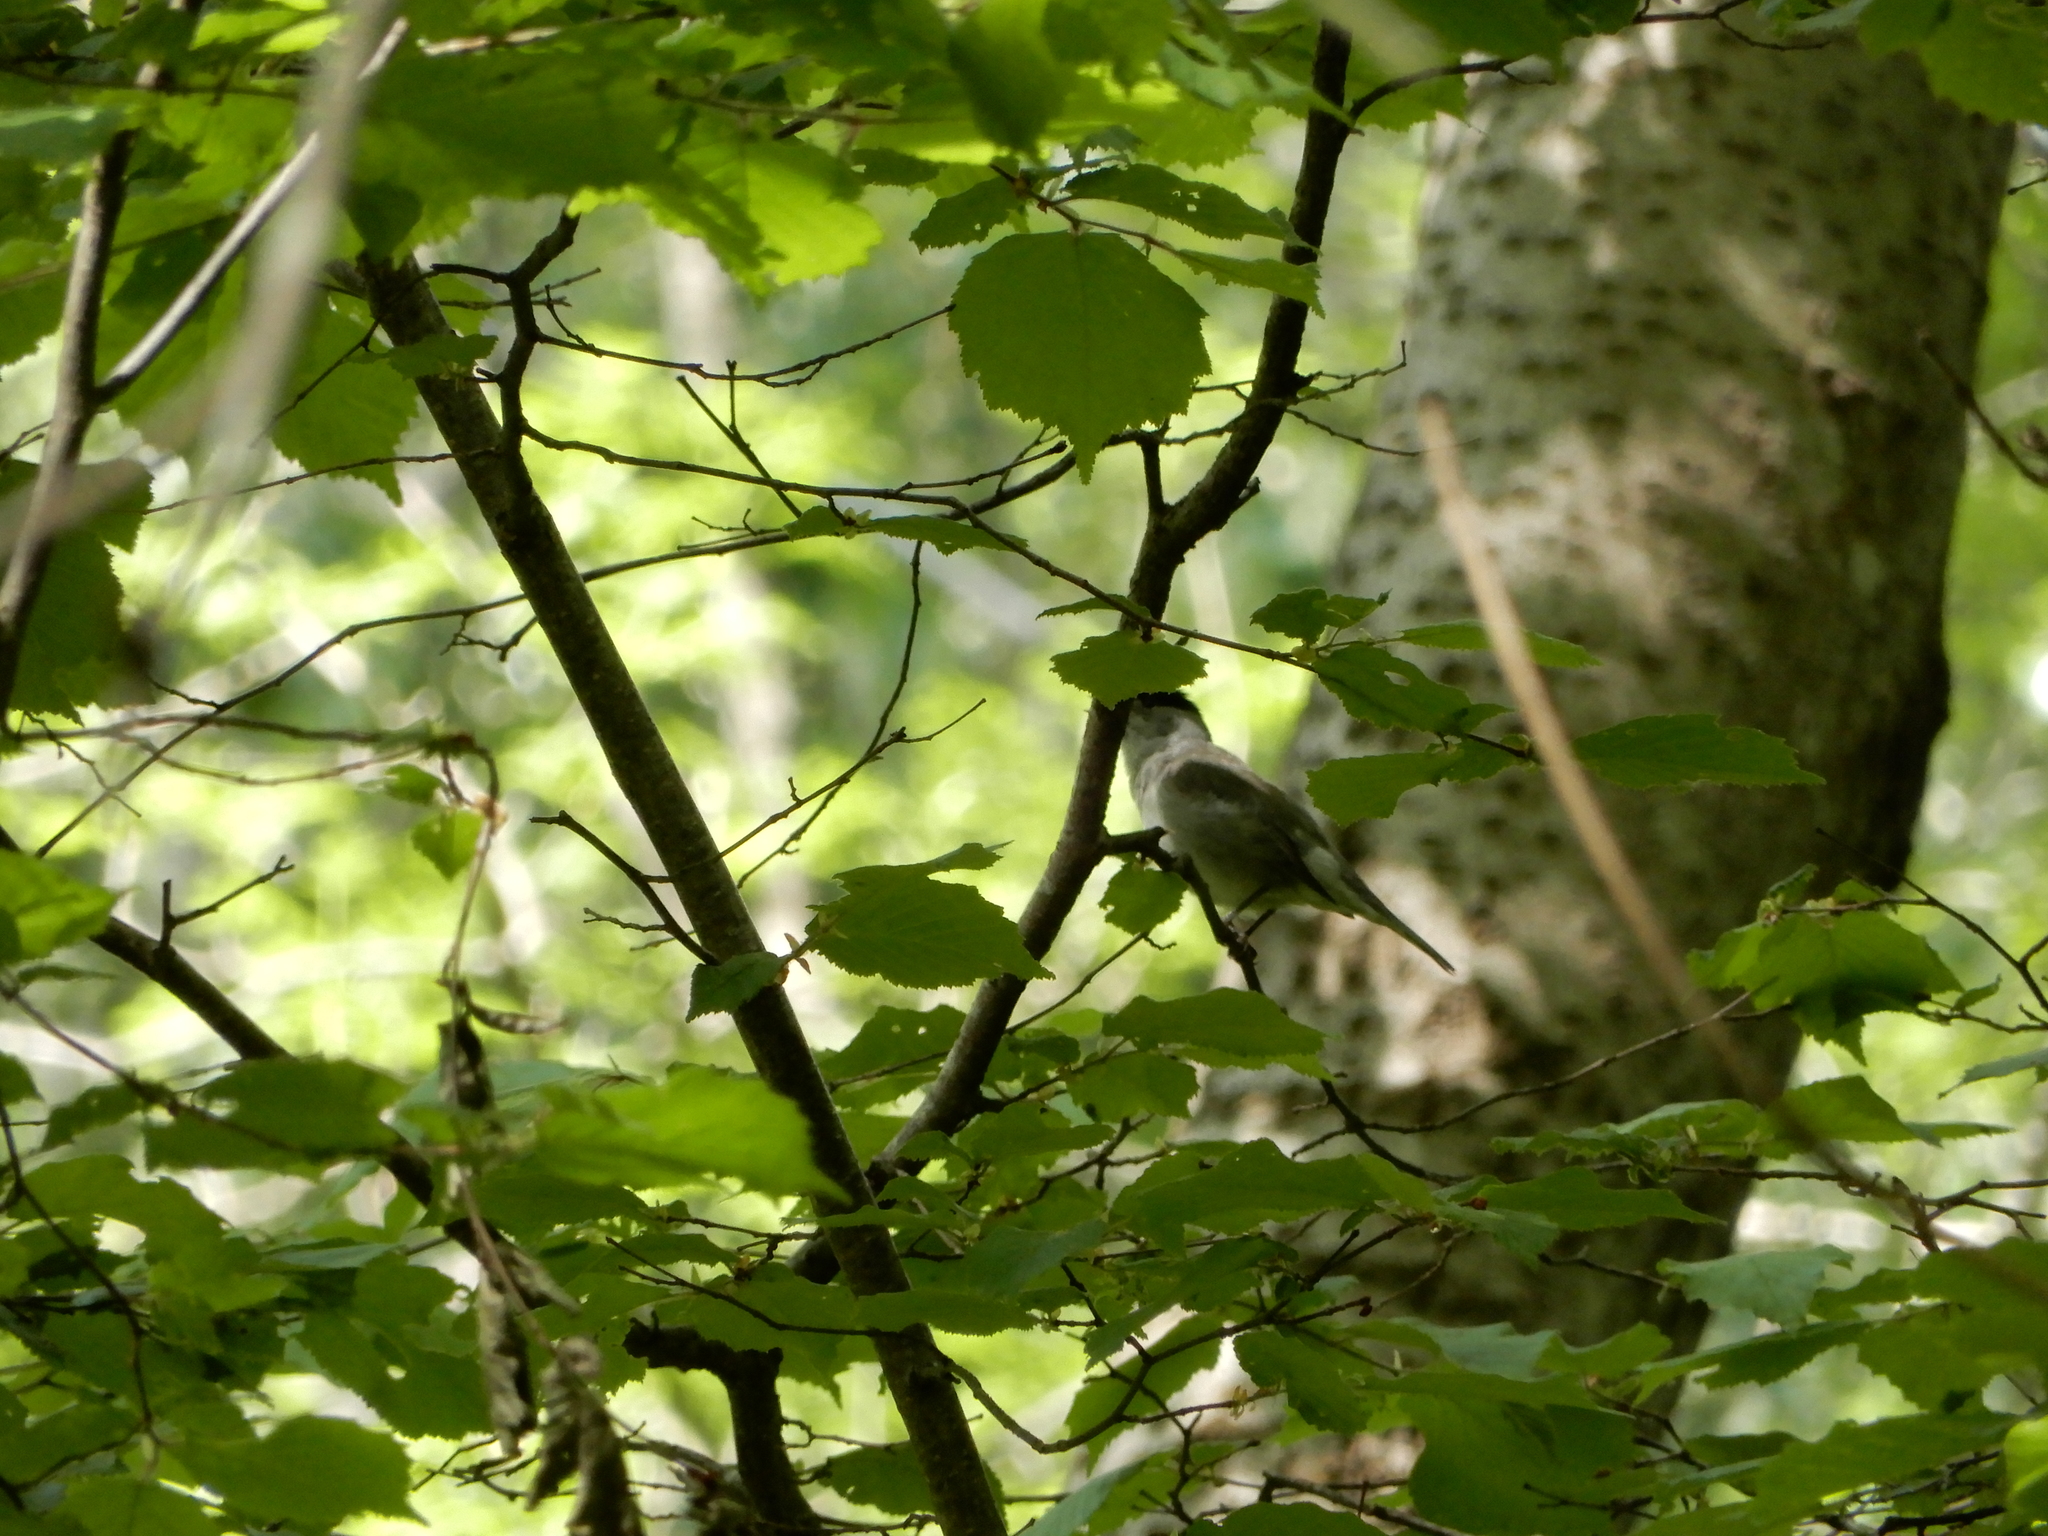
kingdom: Animalia
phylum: Chordata
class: Aves
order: Passeriformes
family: Sylviidae
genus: Sylvia
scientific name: Sylvia atricapilla
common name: Eurasian blackcap
